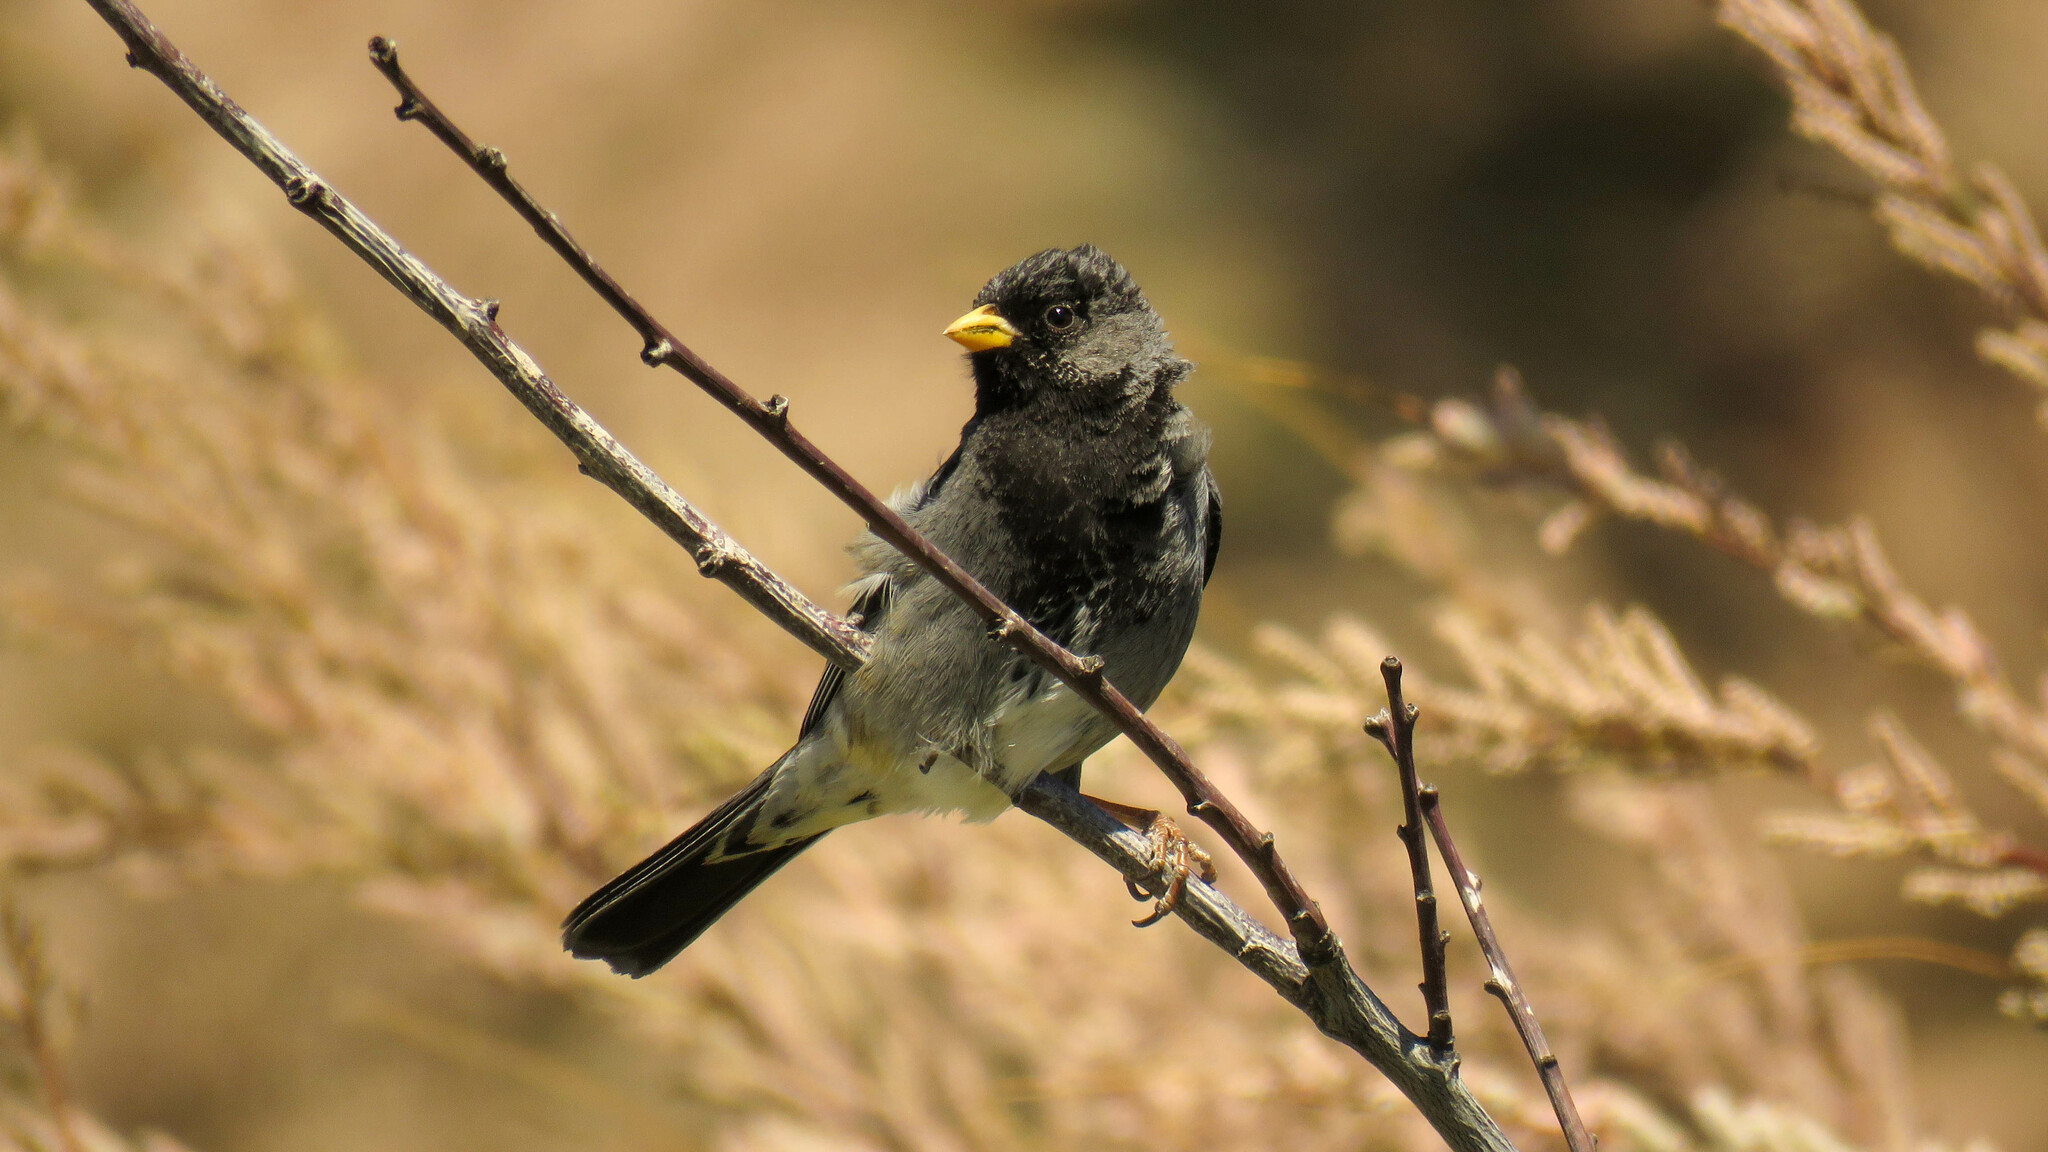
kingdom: Animalia
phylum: Chordata
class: Aves
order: Passeriformes
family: Thraupidae
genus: Rhopospina
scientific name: Rhopospina fruticeti
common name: Mourning sierra finch
